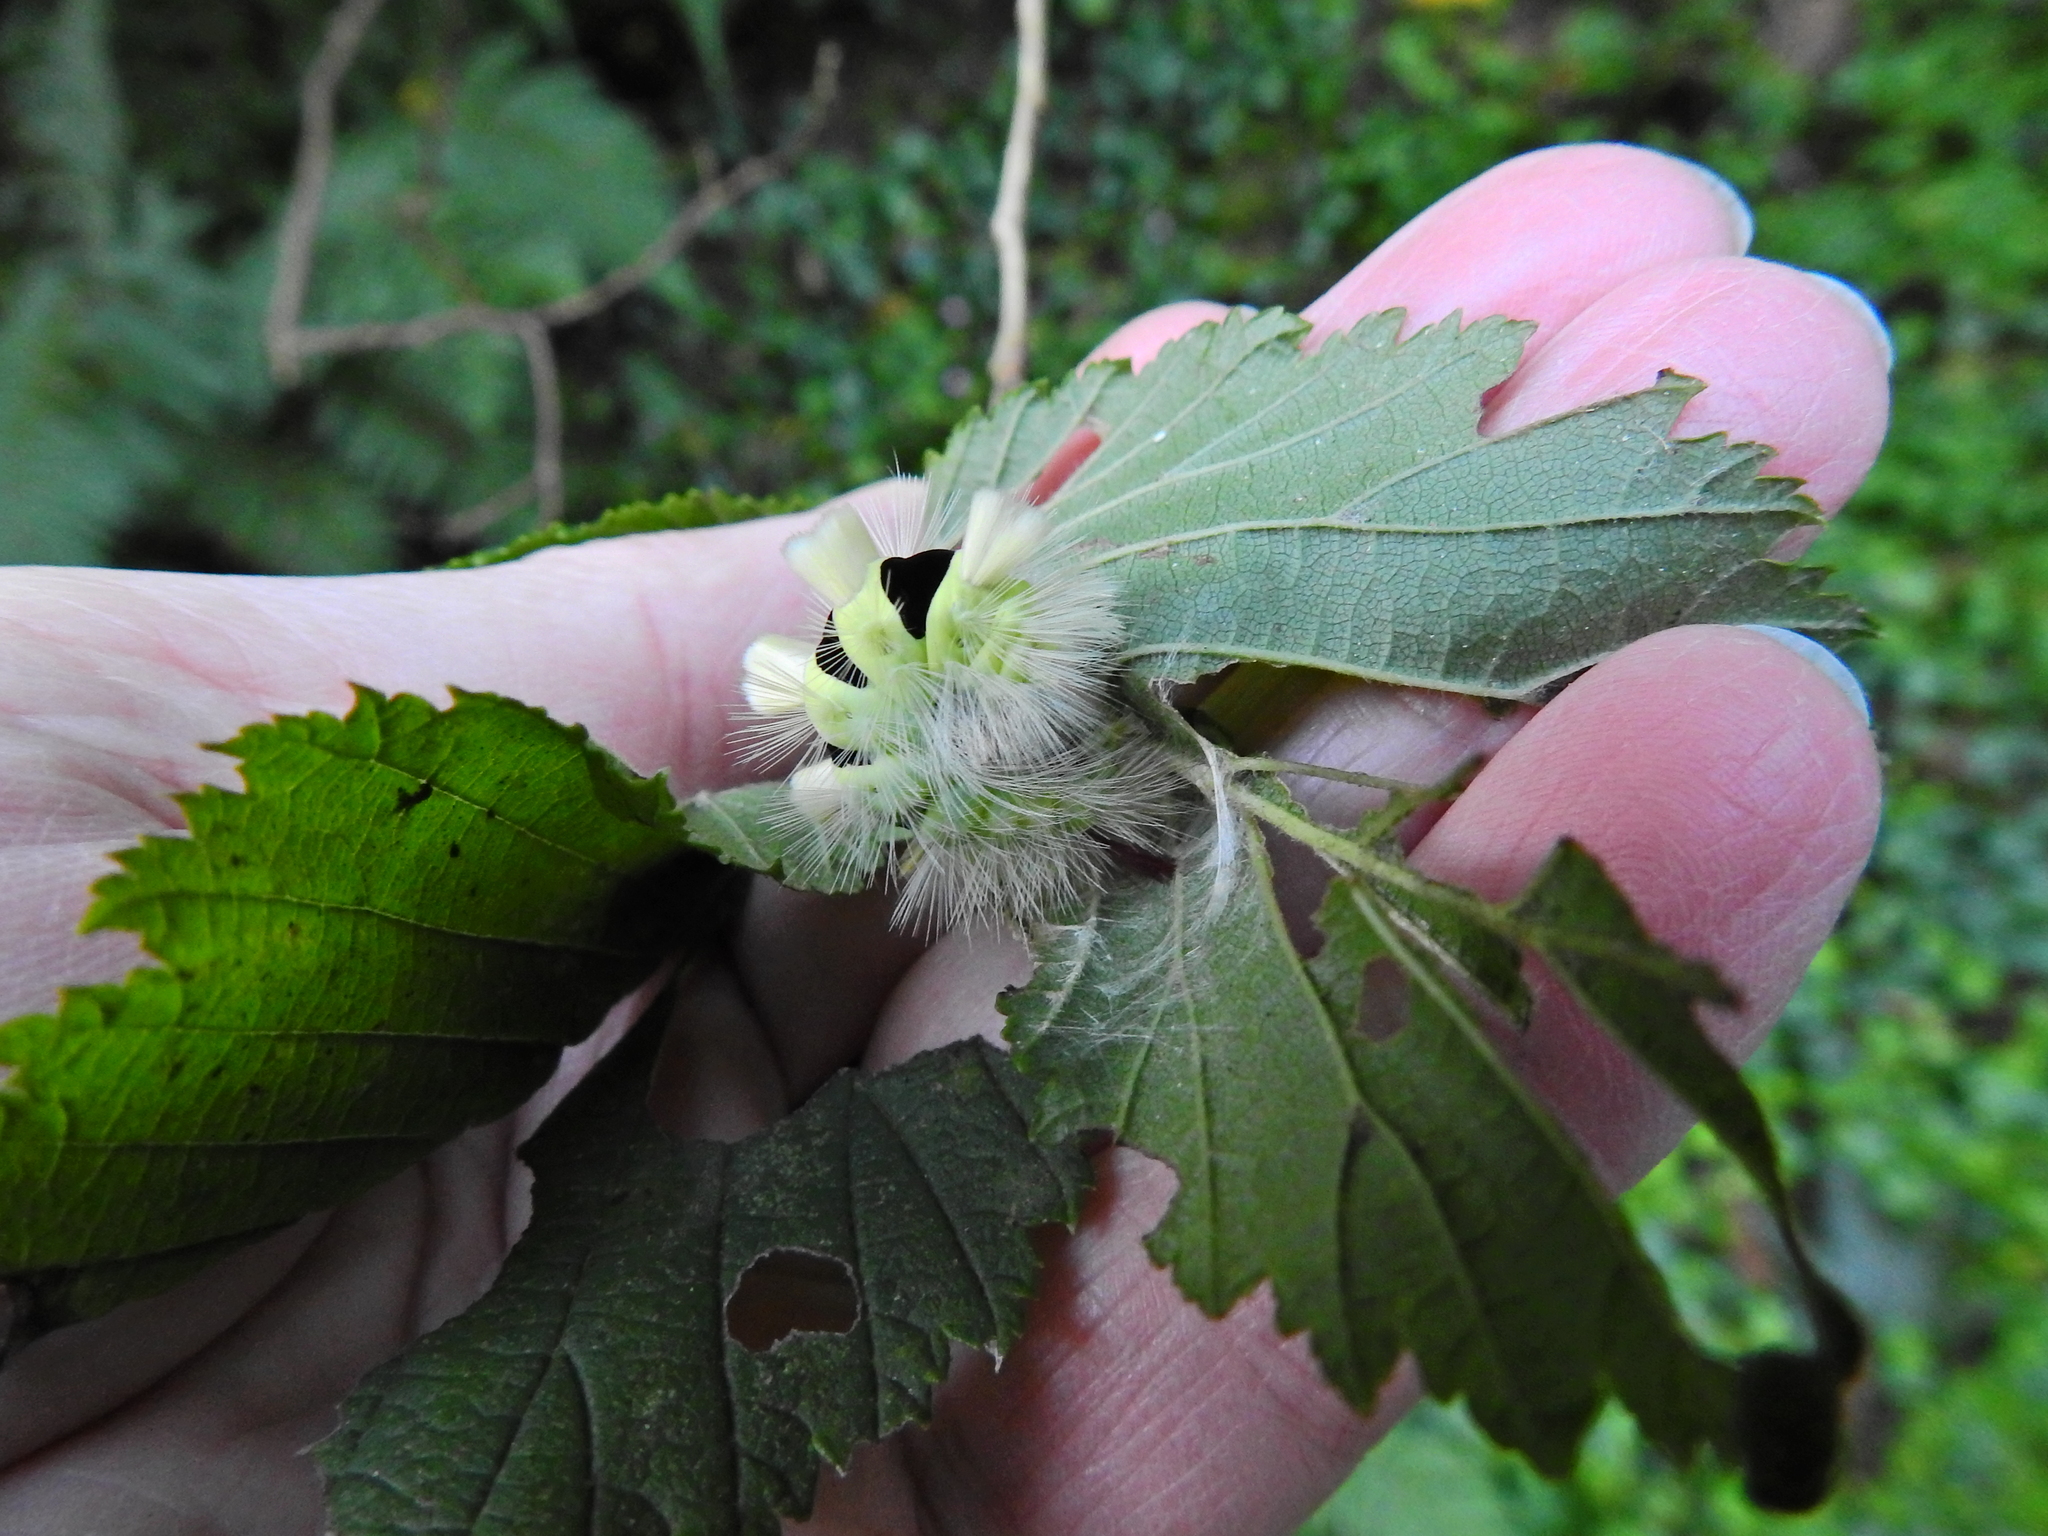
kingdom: Animalia
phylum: Arthropoda
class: Insecta
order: Lepidoptera
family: Erebidae
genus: Calliteara
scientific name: Calliteara pudibunda
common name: Pale tussock
